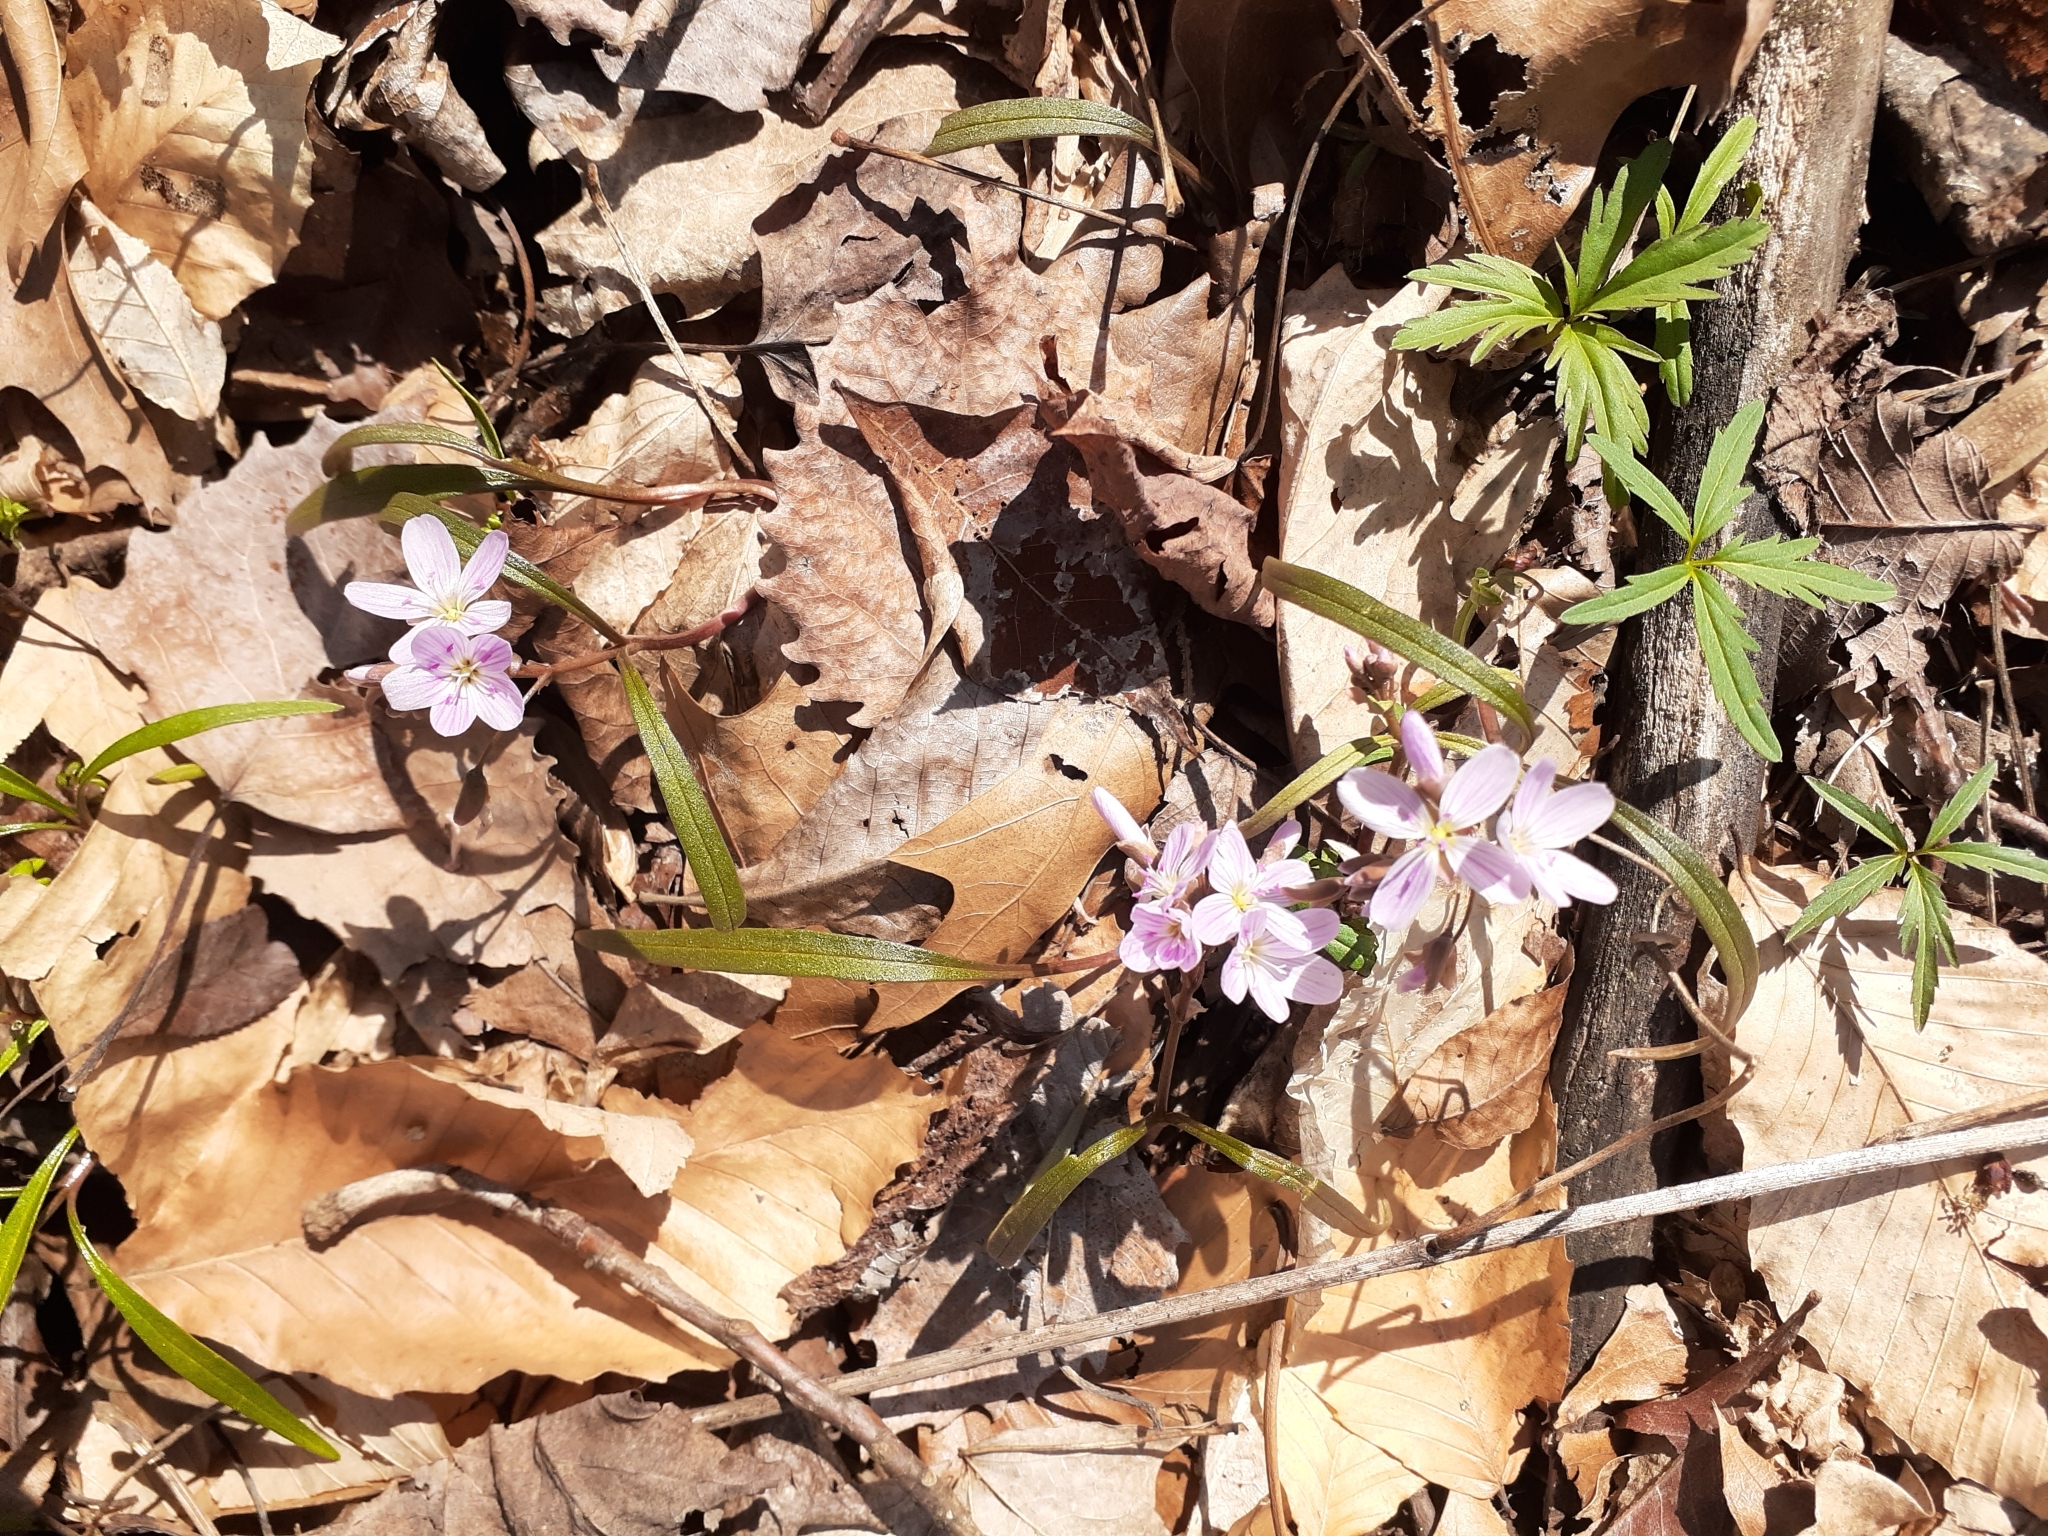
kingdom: Plantae
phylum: Tracheophyta
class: Magnoliopsida
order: Caryophyllales
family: Montiaceae
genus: Claytonia
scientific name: Claytonia virginica
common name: Virginia springbeauty
